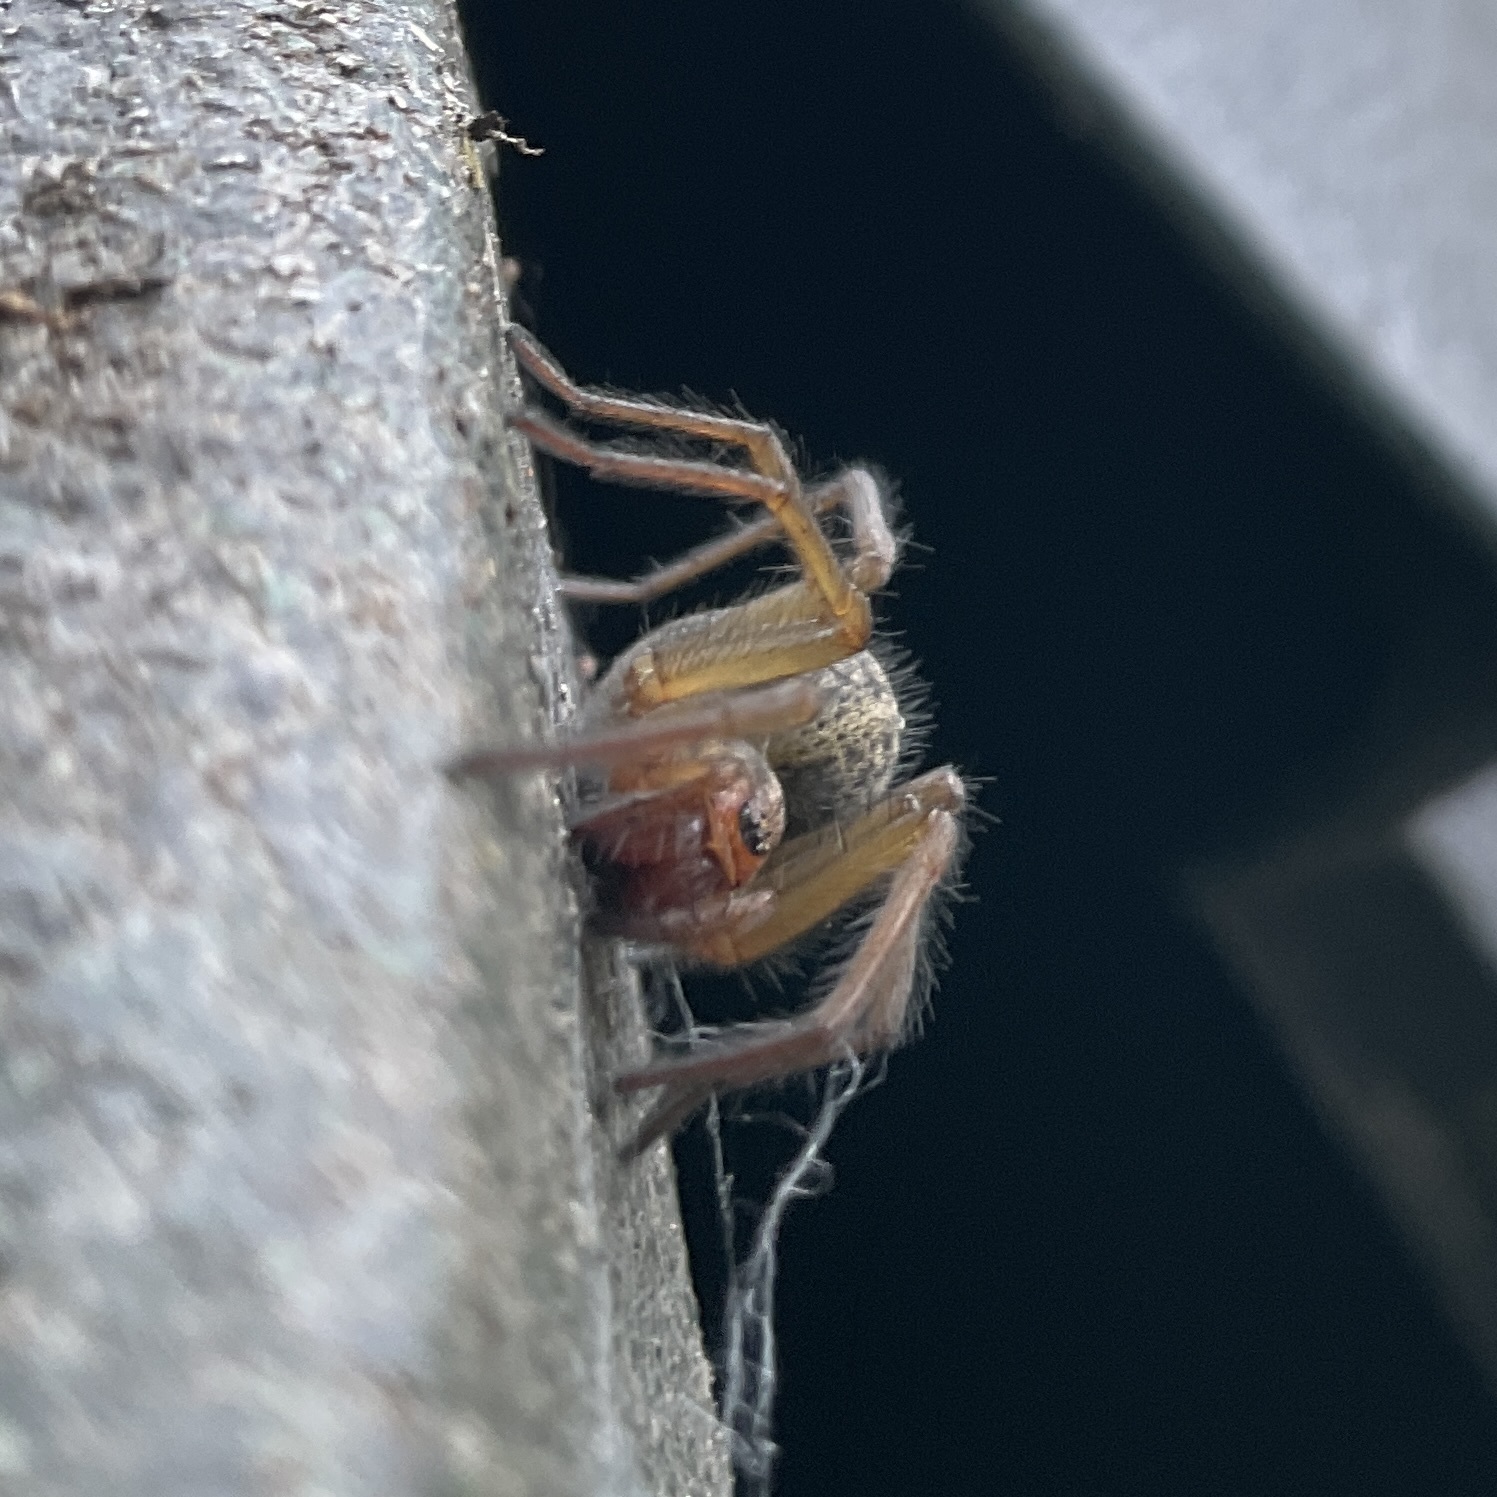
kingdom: Animalia
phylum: Arthropoda
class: Arachnida
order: Araneae
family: Agelenidae
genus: Eratigena
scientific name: Eratigena agrestis
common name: Hobo spider
